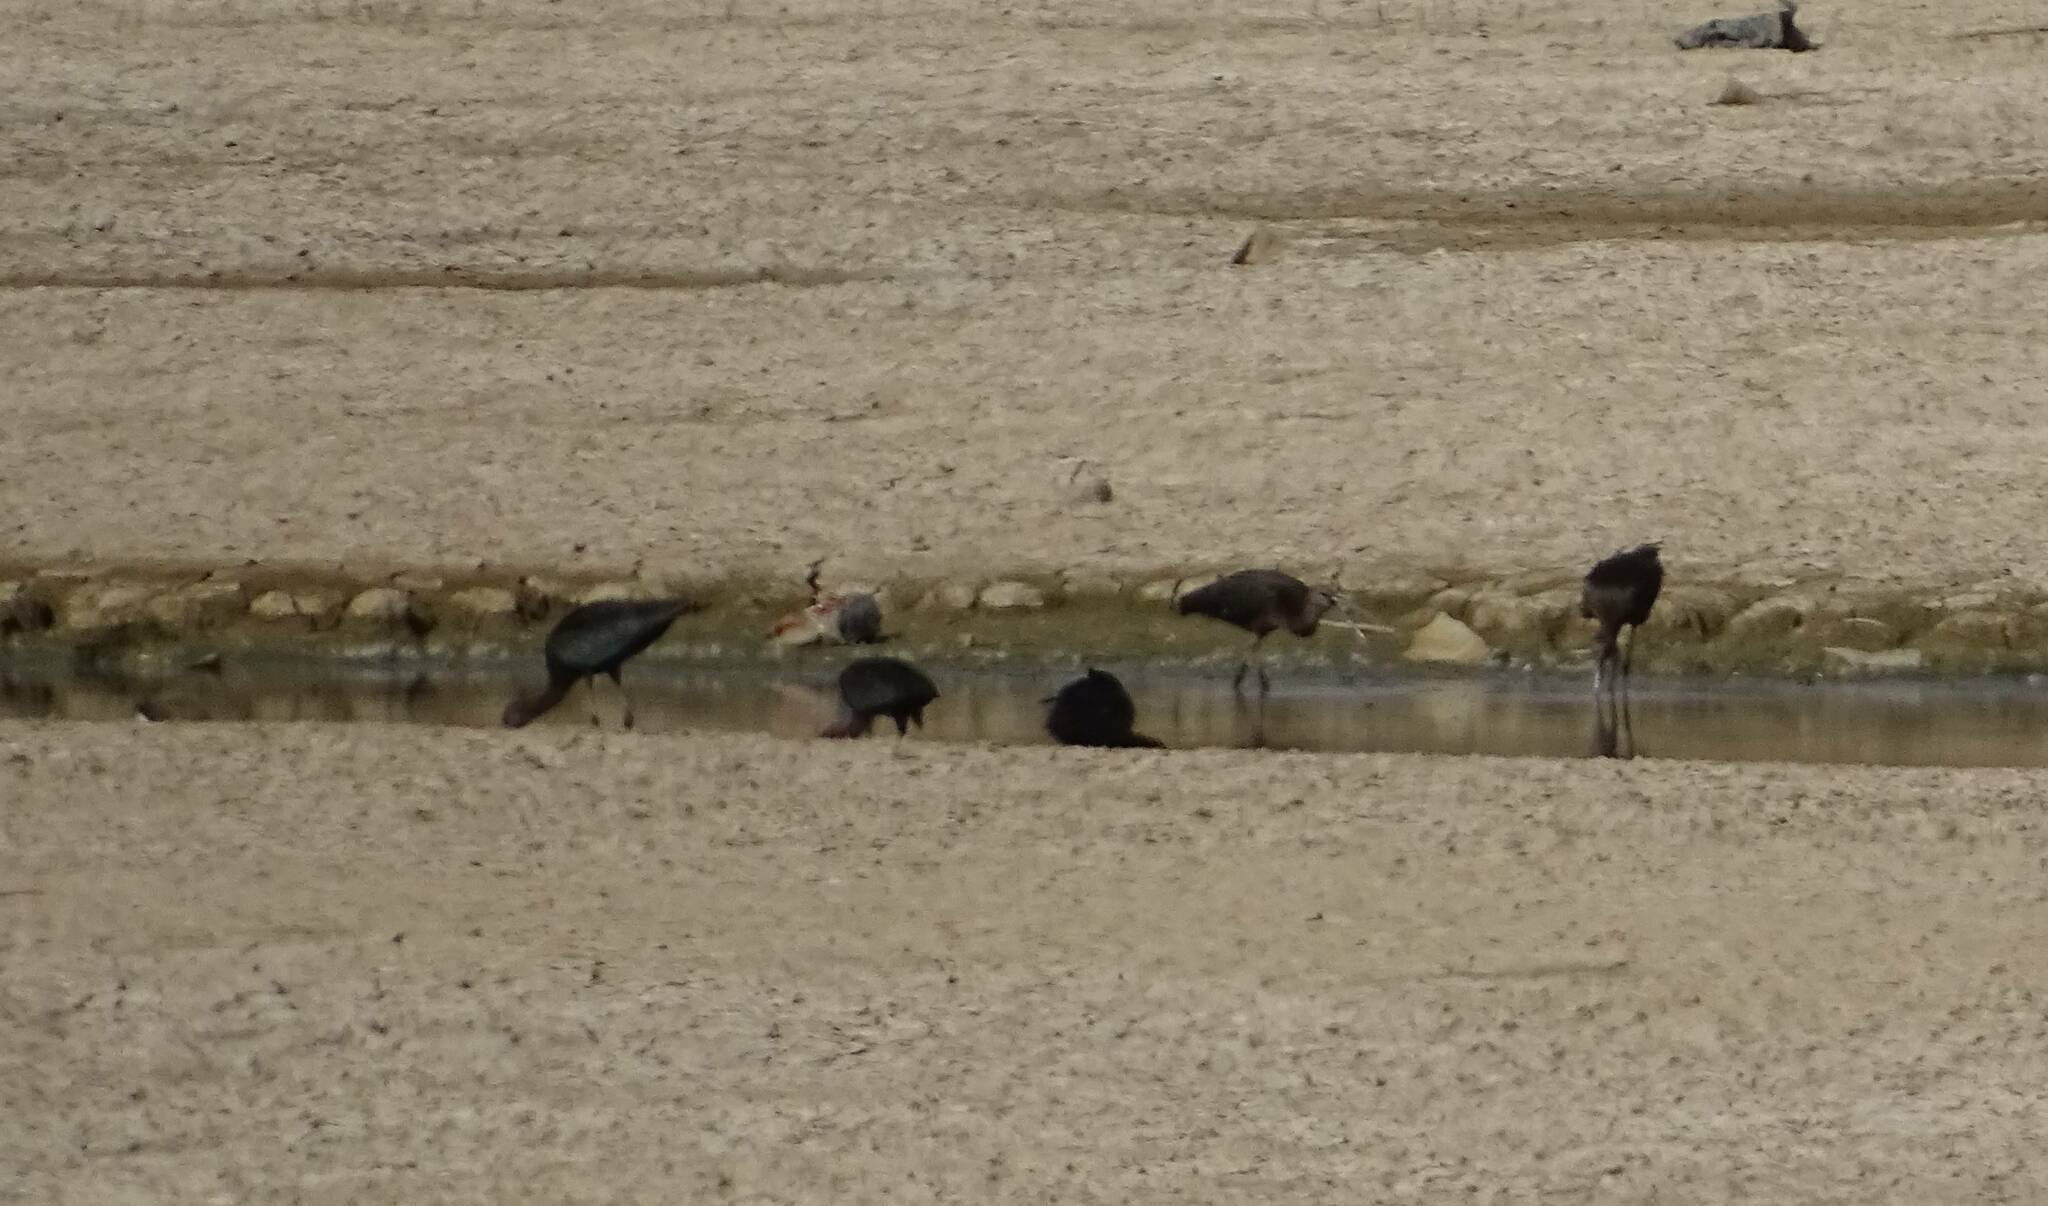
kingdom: Animalia
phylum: Chordata
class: Aves
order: Pelecaniformes
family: Threskiornithidae
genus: Plegadis
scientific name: Plegadis falcinellus
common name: Glossy ibis
